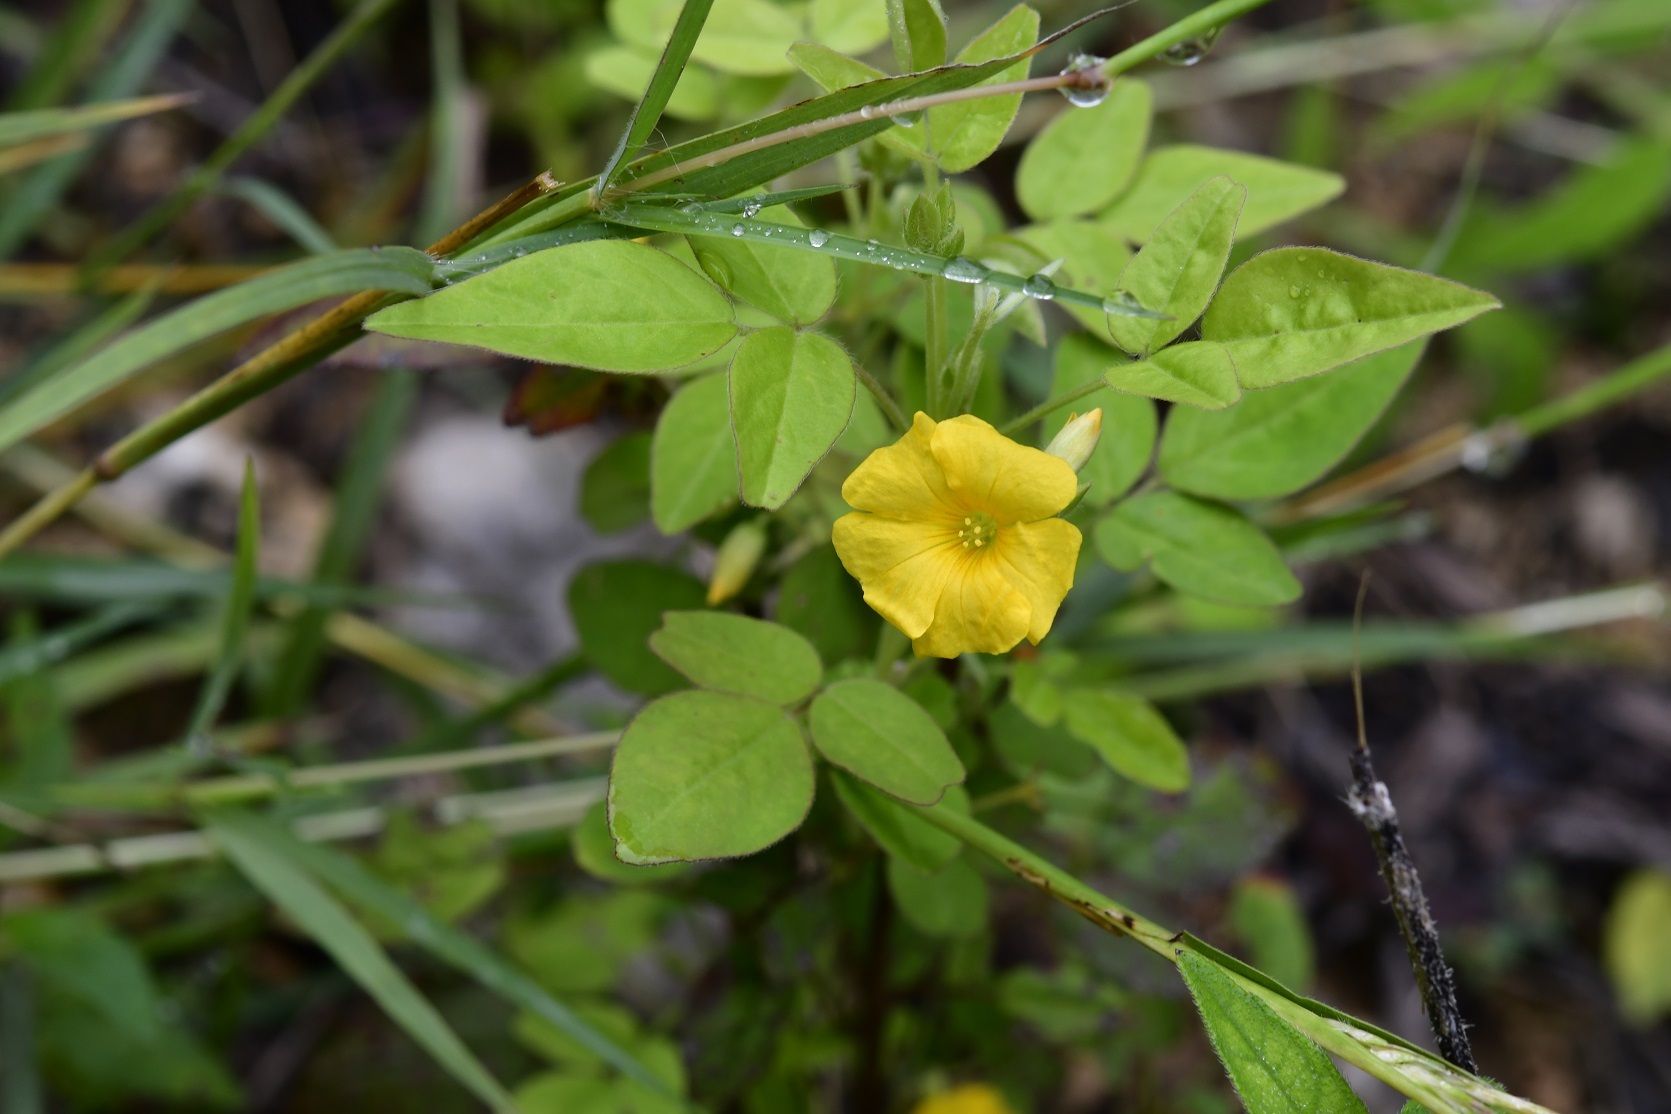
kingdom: Plantae
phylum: Tracheophyta
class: Magnoliopsida
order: Oxalidales
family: Oxalidaceae
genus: Oxalis
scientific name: Oxalis frutescens
